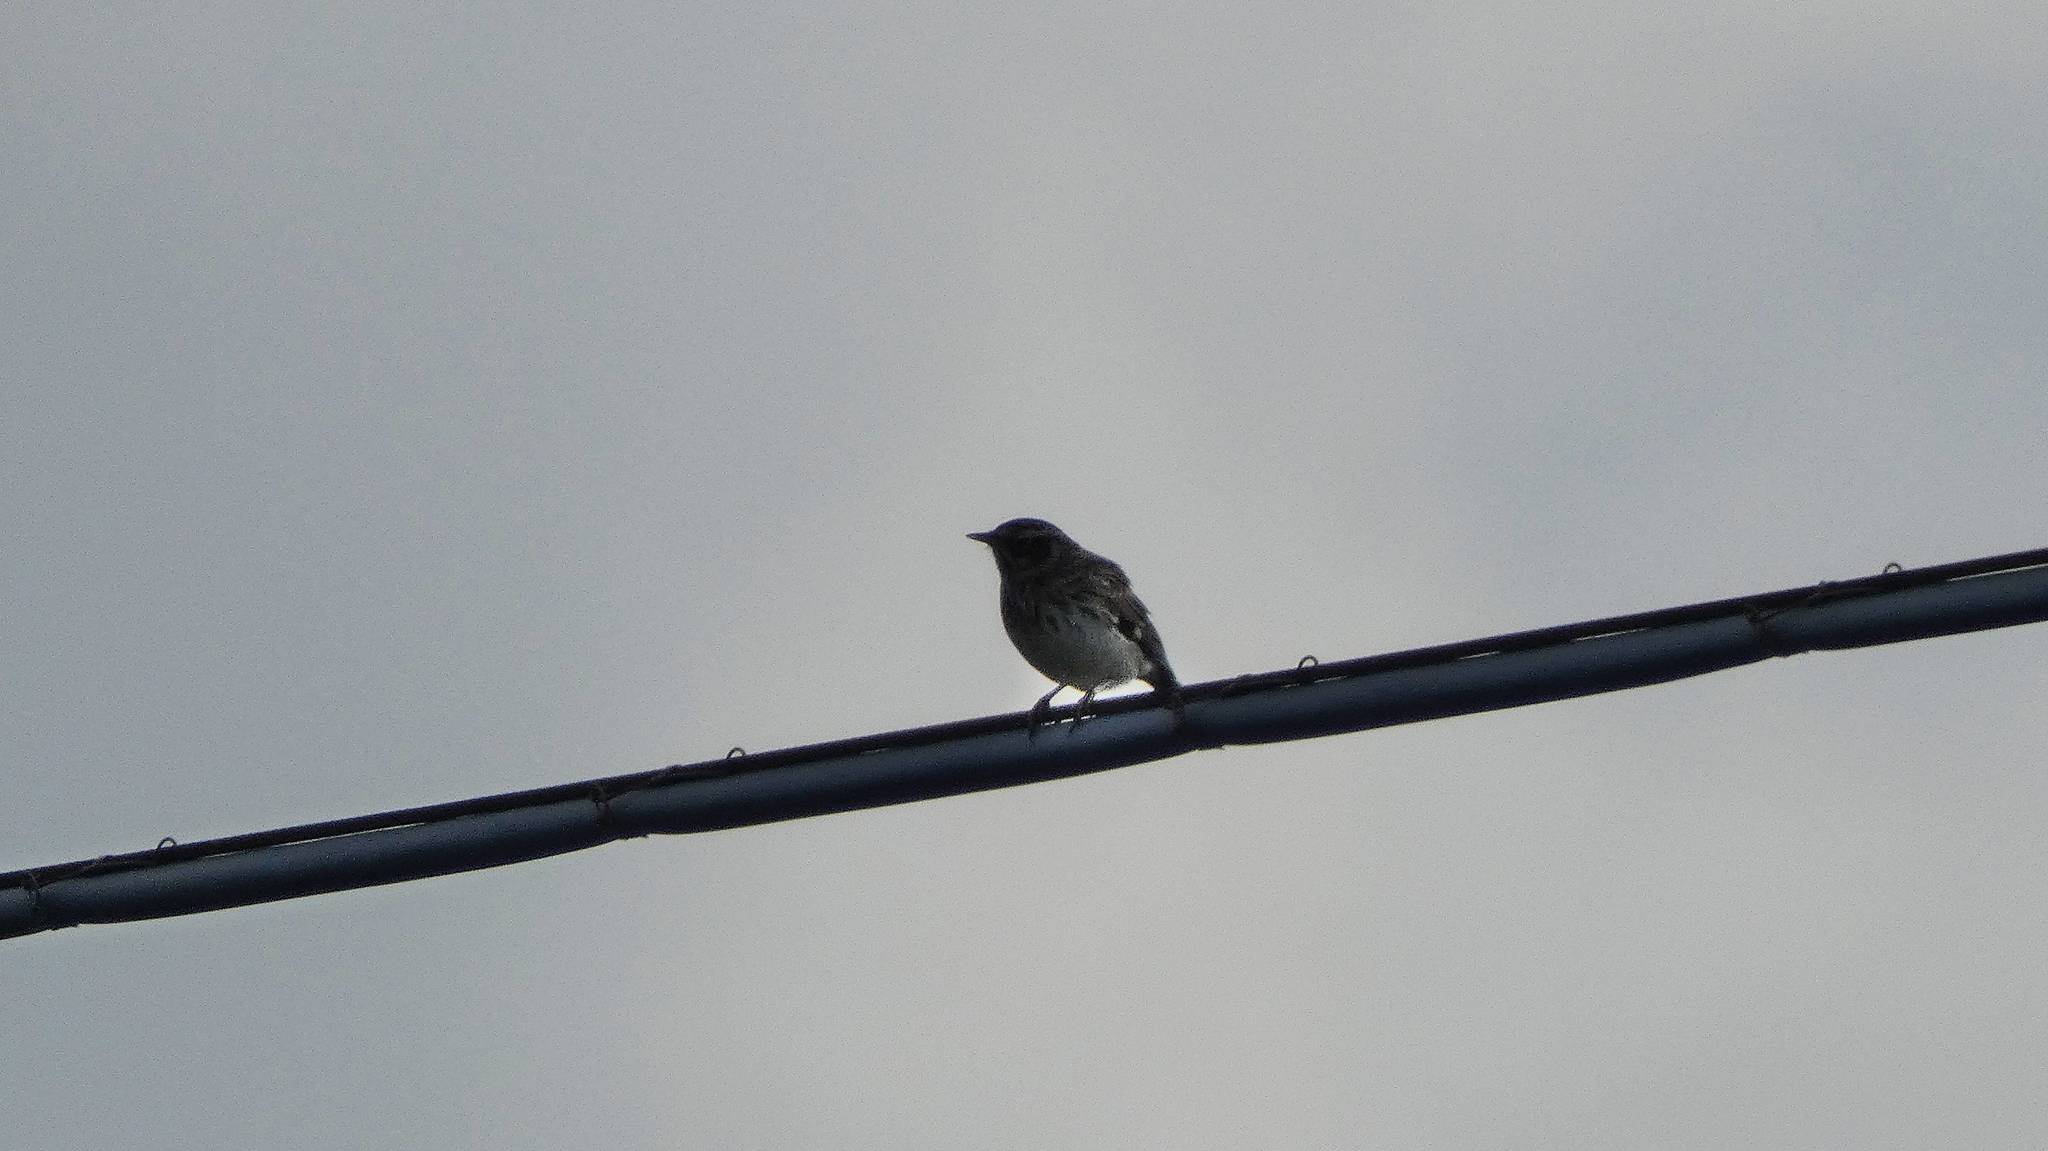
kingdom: Animalia
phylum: Chordata
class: Aves
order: Passeriformes
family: Alaudidae
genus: Lullula
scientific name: Lullula arborea
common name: Woodlark
